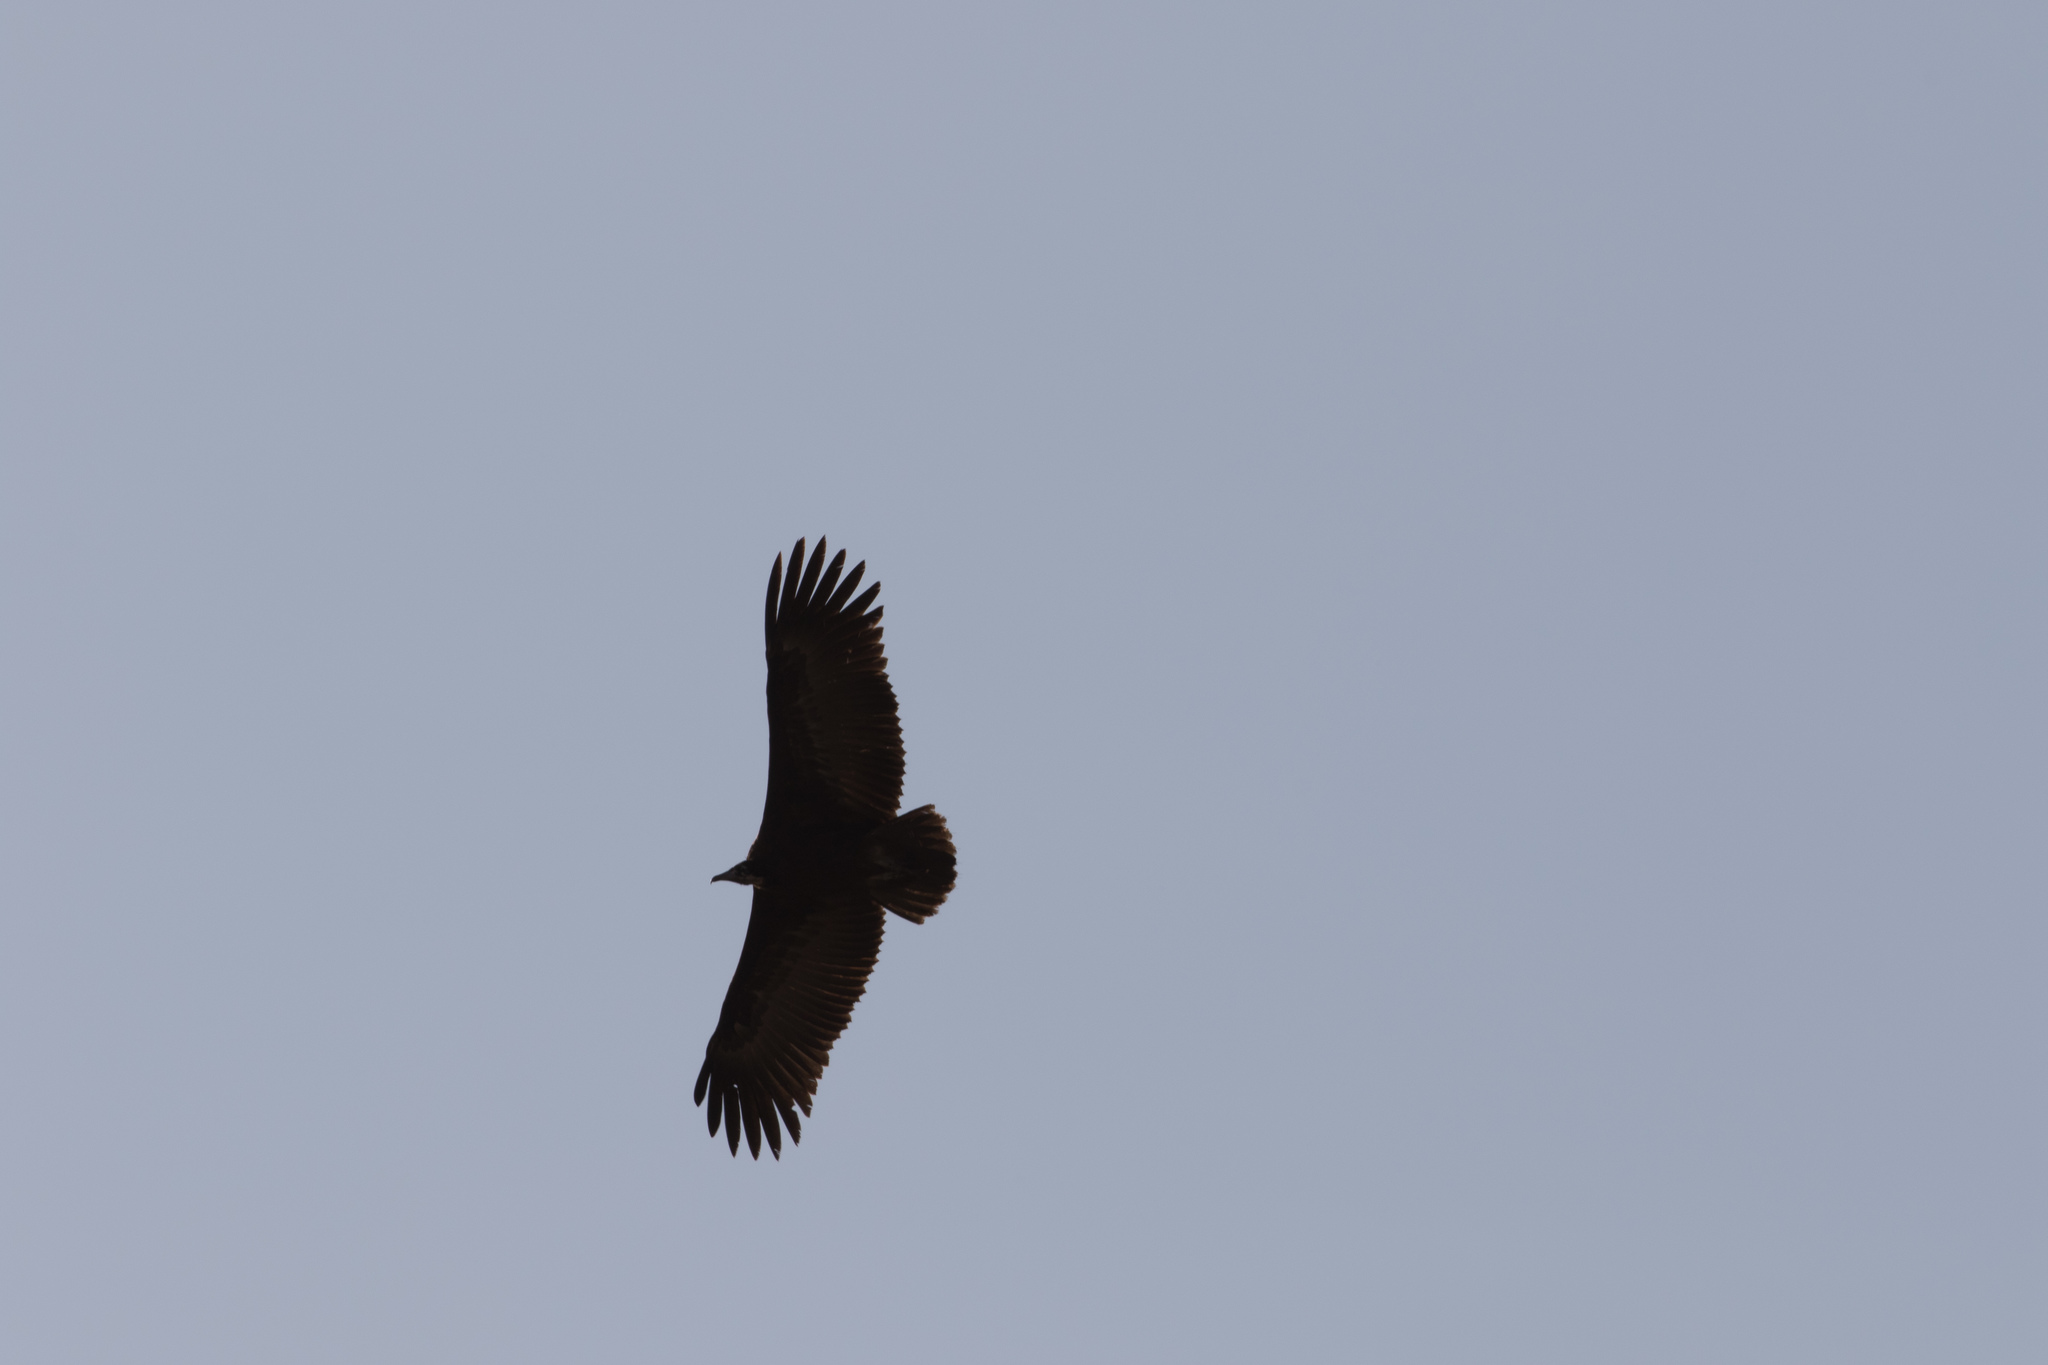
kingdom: Animalia
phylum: Chordata
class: Aves
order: Accipitriformes
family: Accipitridae
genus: Necrosyrtes
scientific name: Necrosyrtes monachus
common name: Hooded vulture
